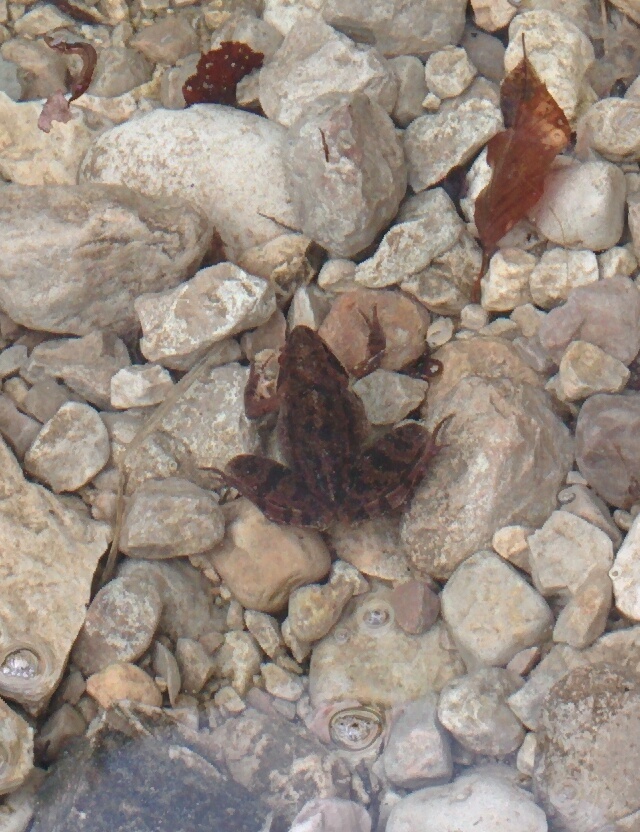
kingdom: Animalia
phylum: Chordata
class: Amphibia
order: Anura
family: Ranidae
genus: Rana
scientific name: Rana dalmatina
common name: Agile frog
